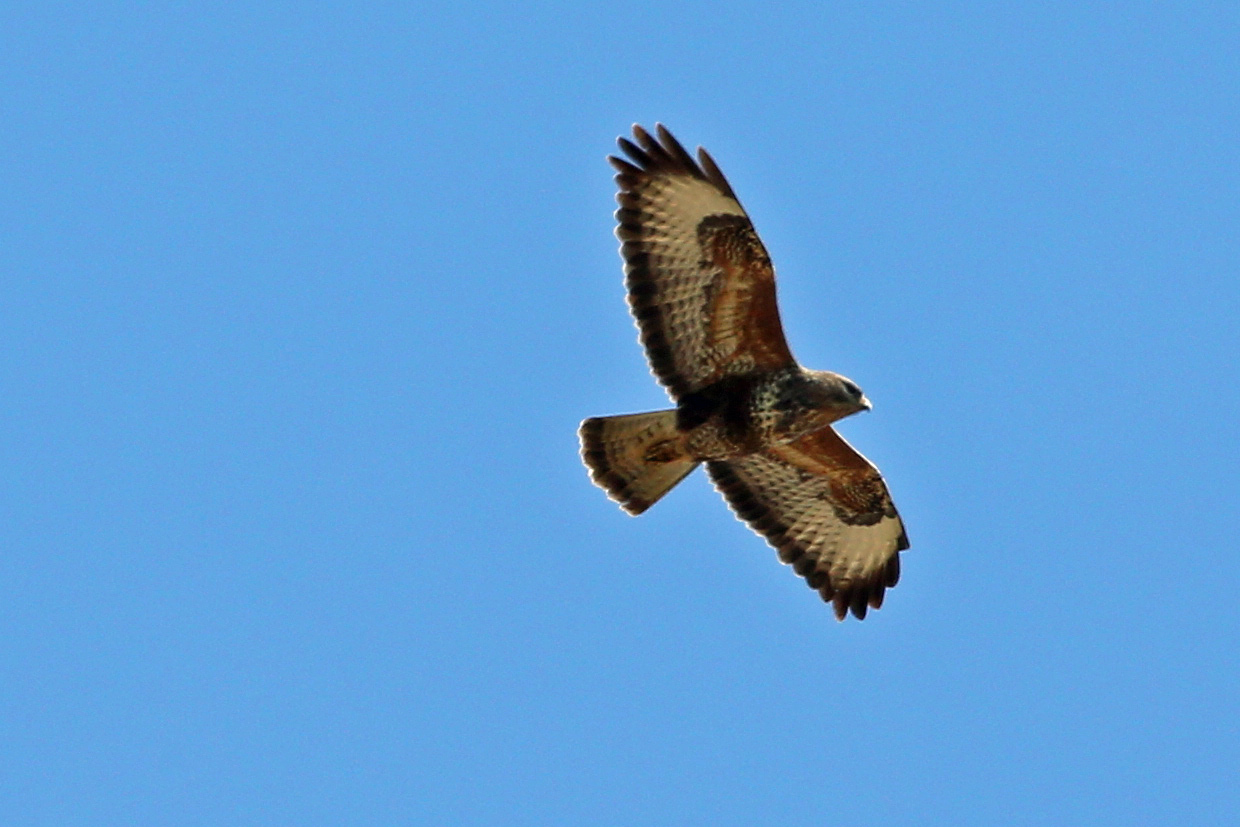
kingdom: Animalia
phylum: Chordata
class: Aves
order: Accipitriformes
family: Accipitridae
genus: Buteo
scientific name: Buteo buteo
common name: Common buzzard
